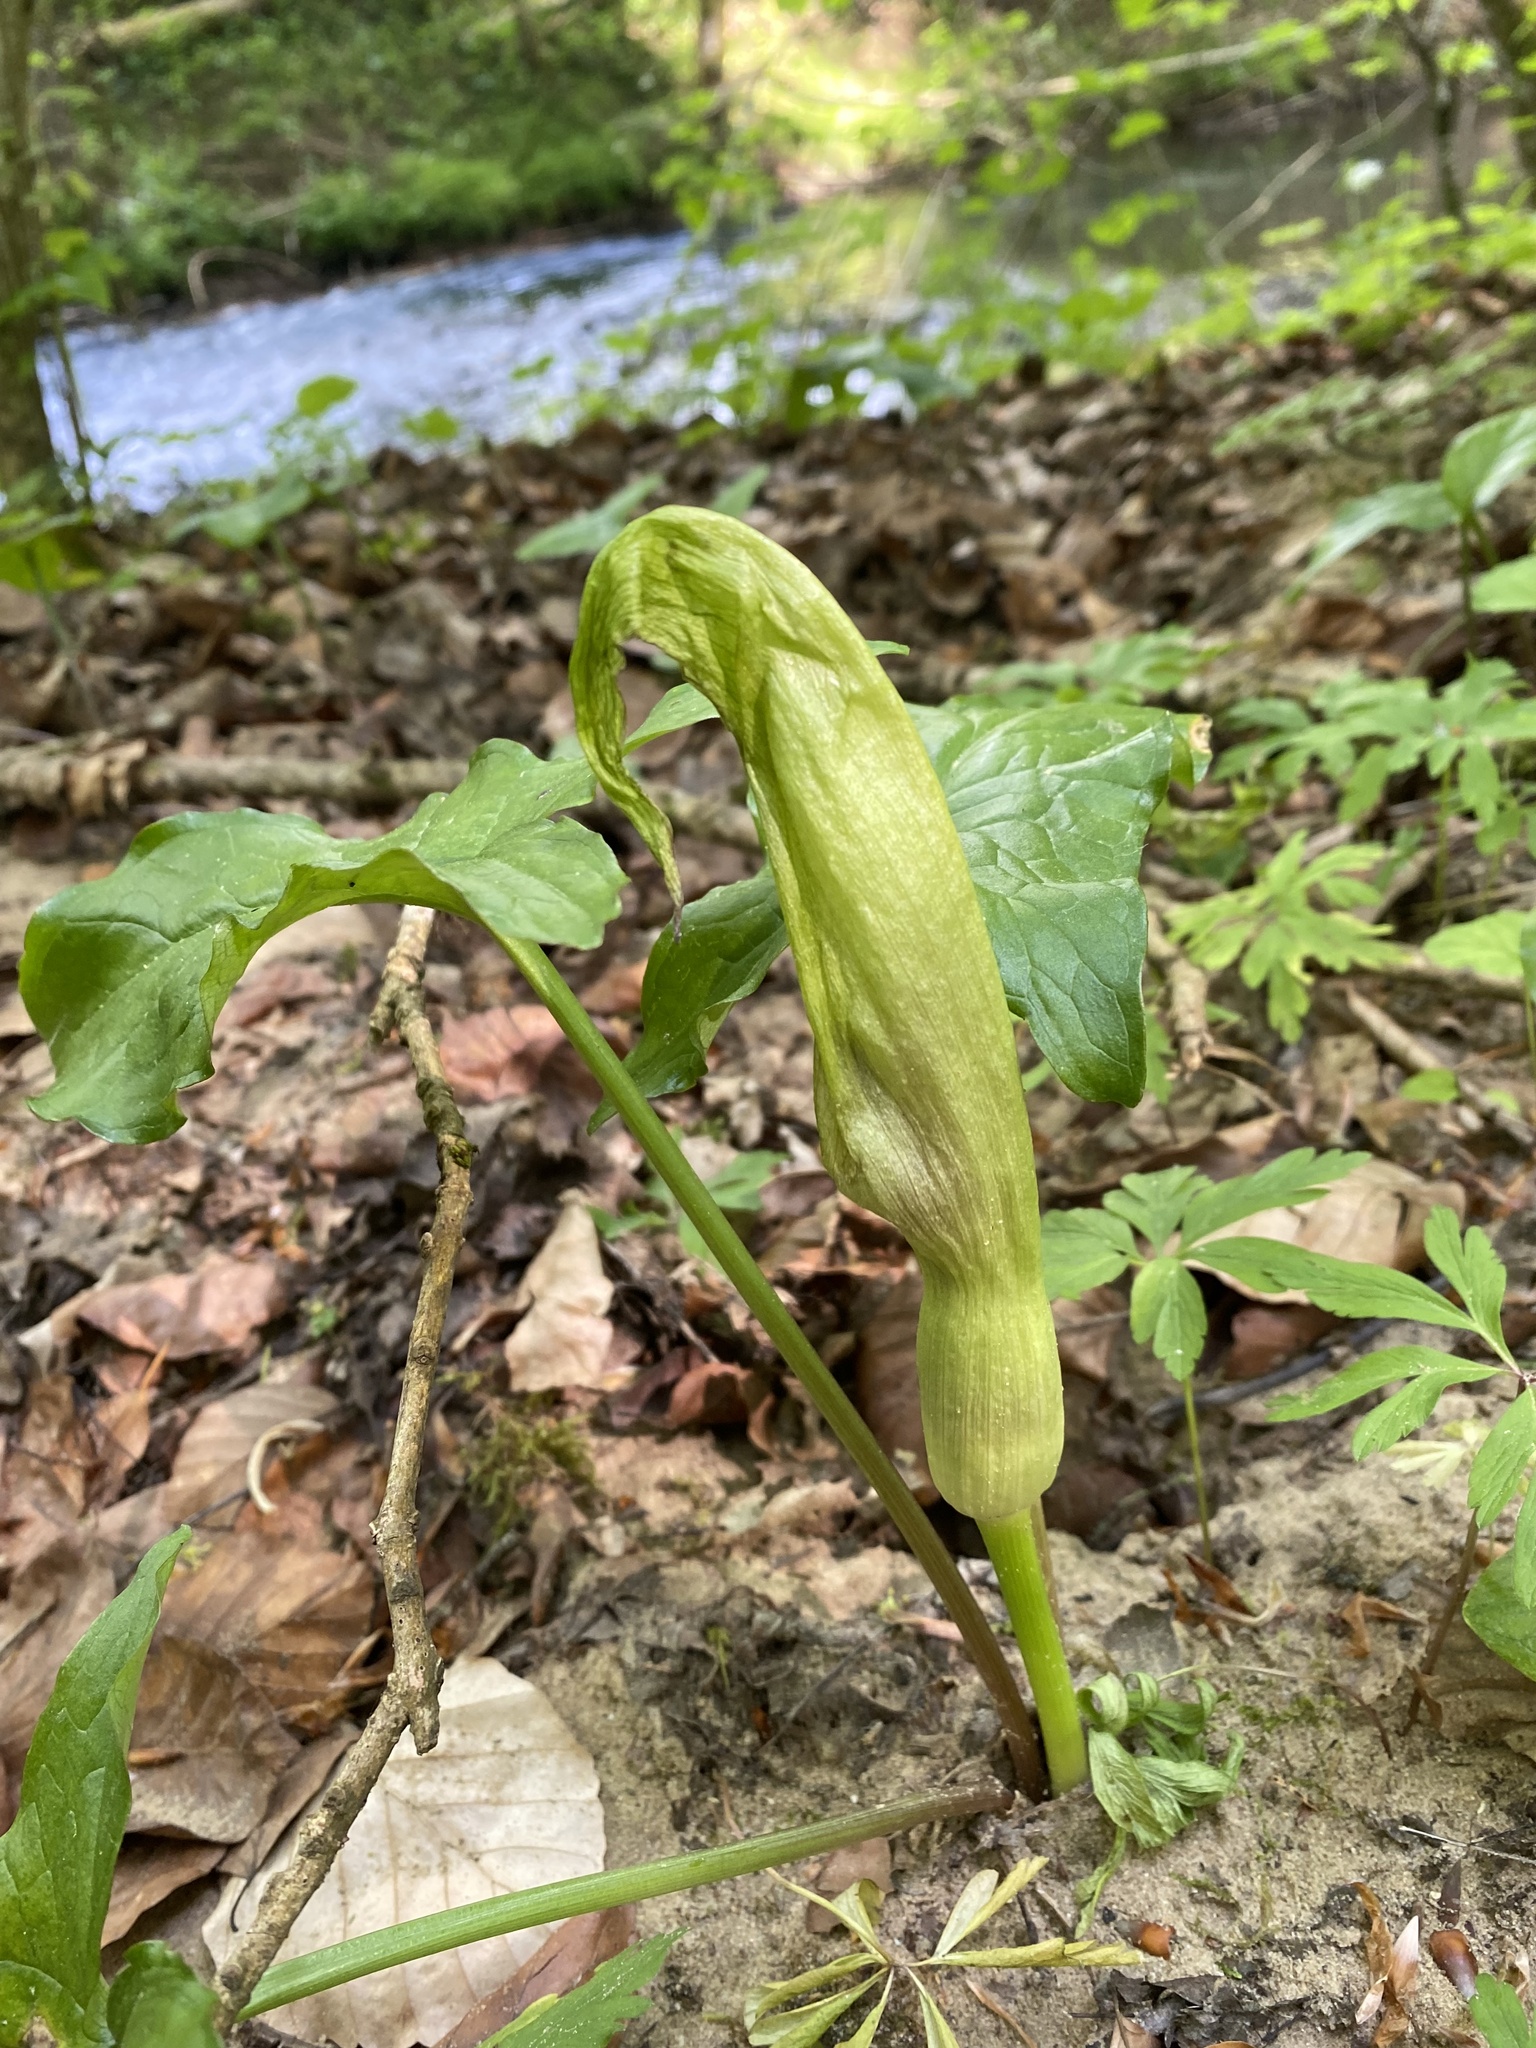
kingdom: Plantae
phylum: Tracheophyta
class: Liliopsida
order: Alismatales
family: Araceae
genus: Arum
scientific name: Arum maculatum
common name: Lords-and-ladies
